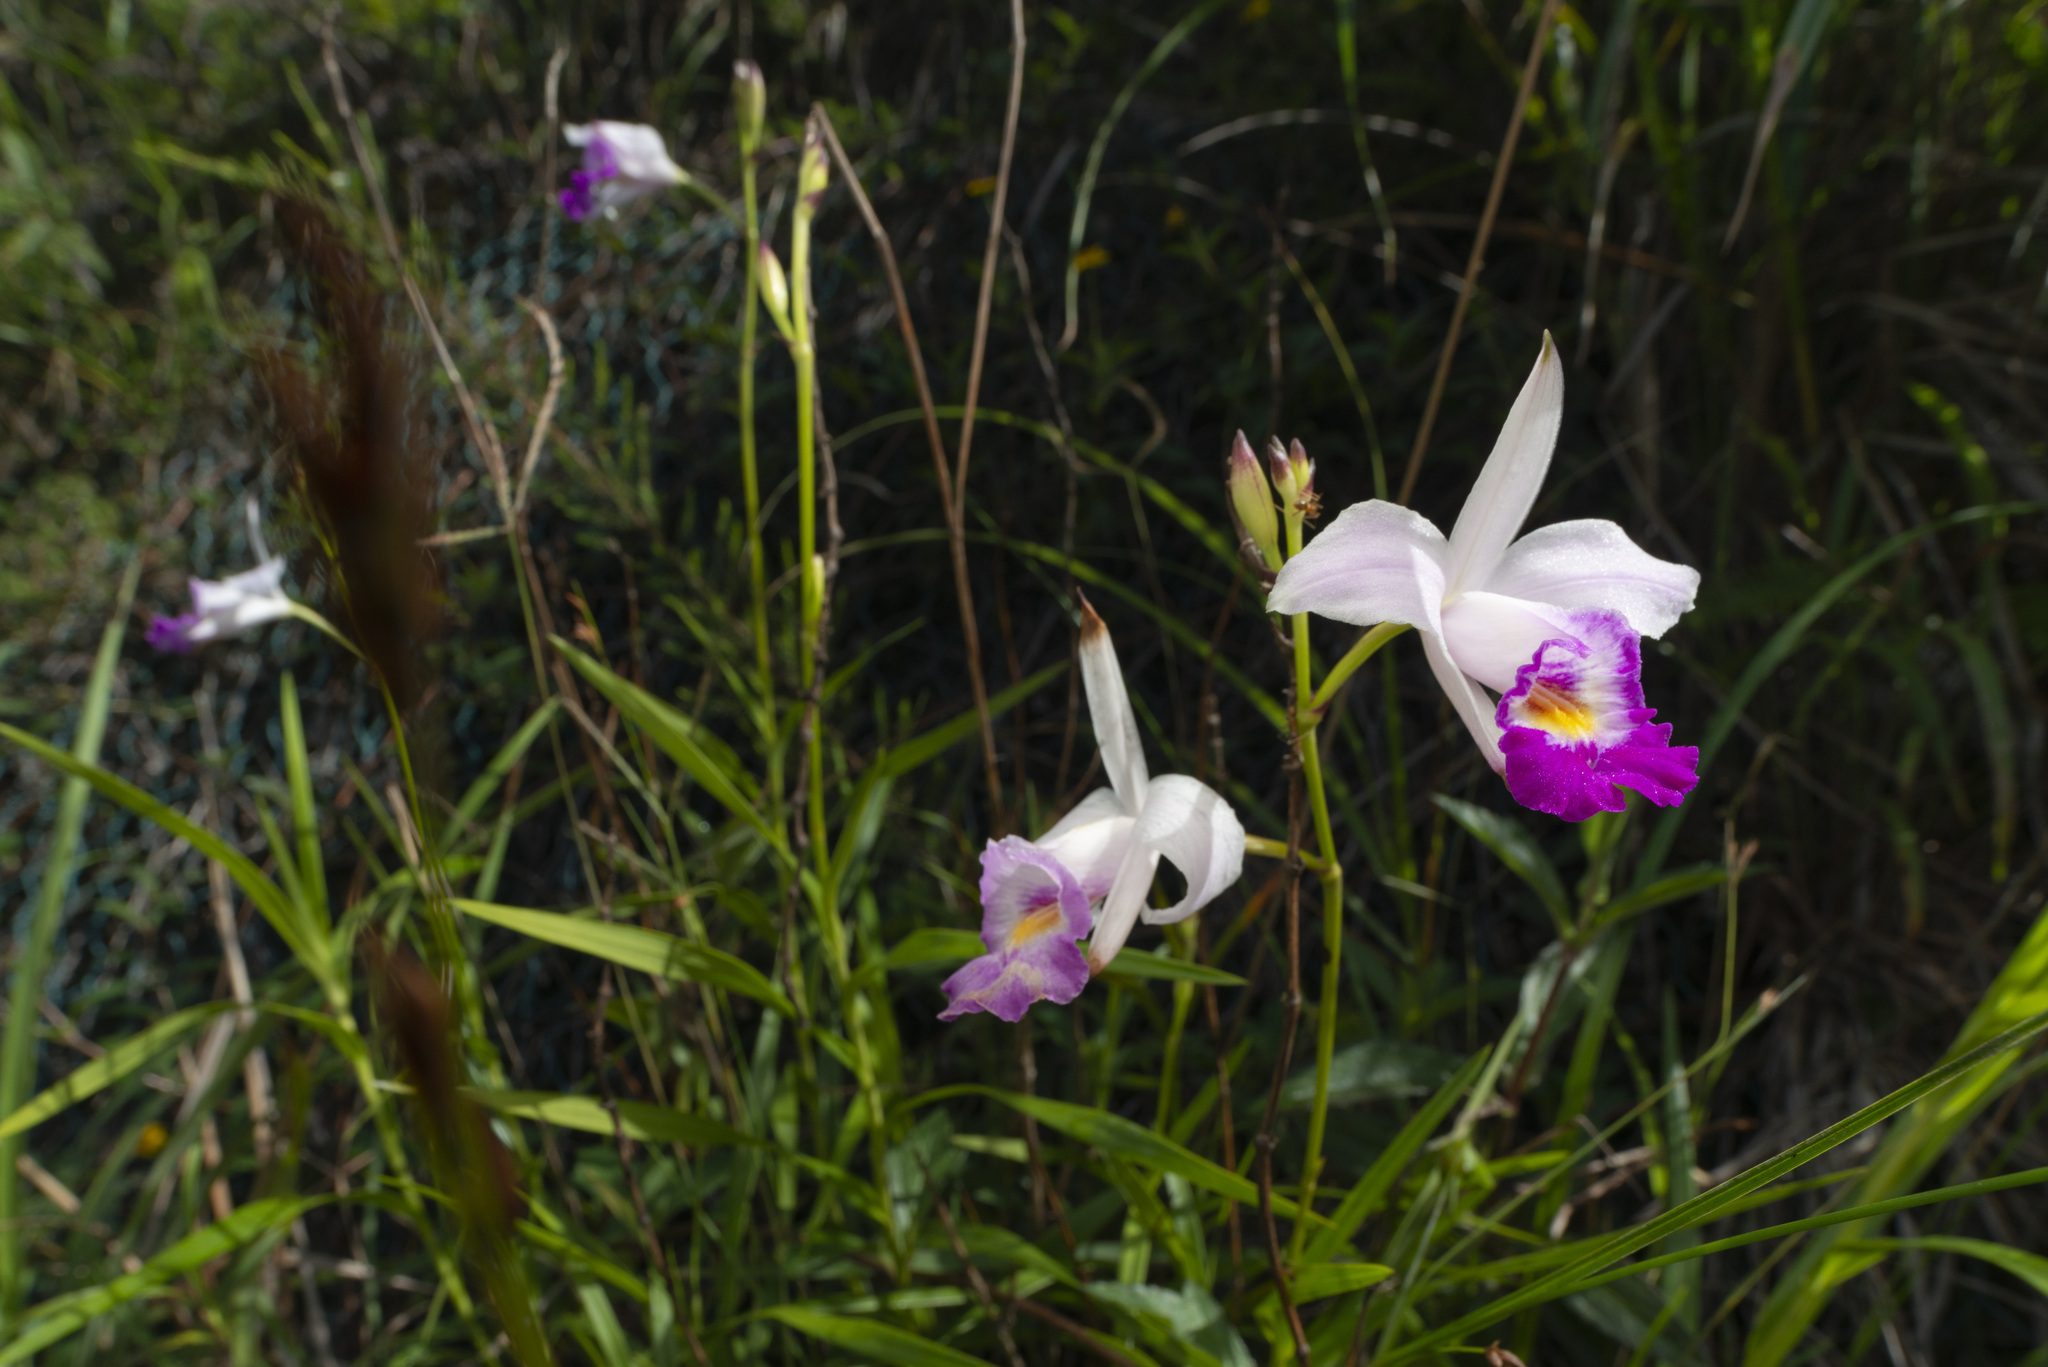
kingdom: Plantae
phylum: Tracheophyta
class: Liliopsida
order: Asparagales
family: Orchidaceae
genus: Arundina
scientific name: Arundina graminifolia
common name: Bamboo orchid
